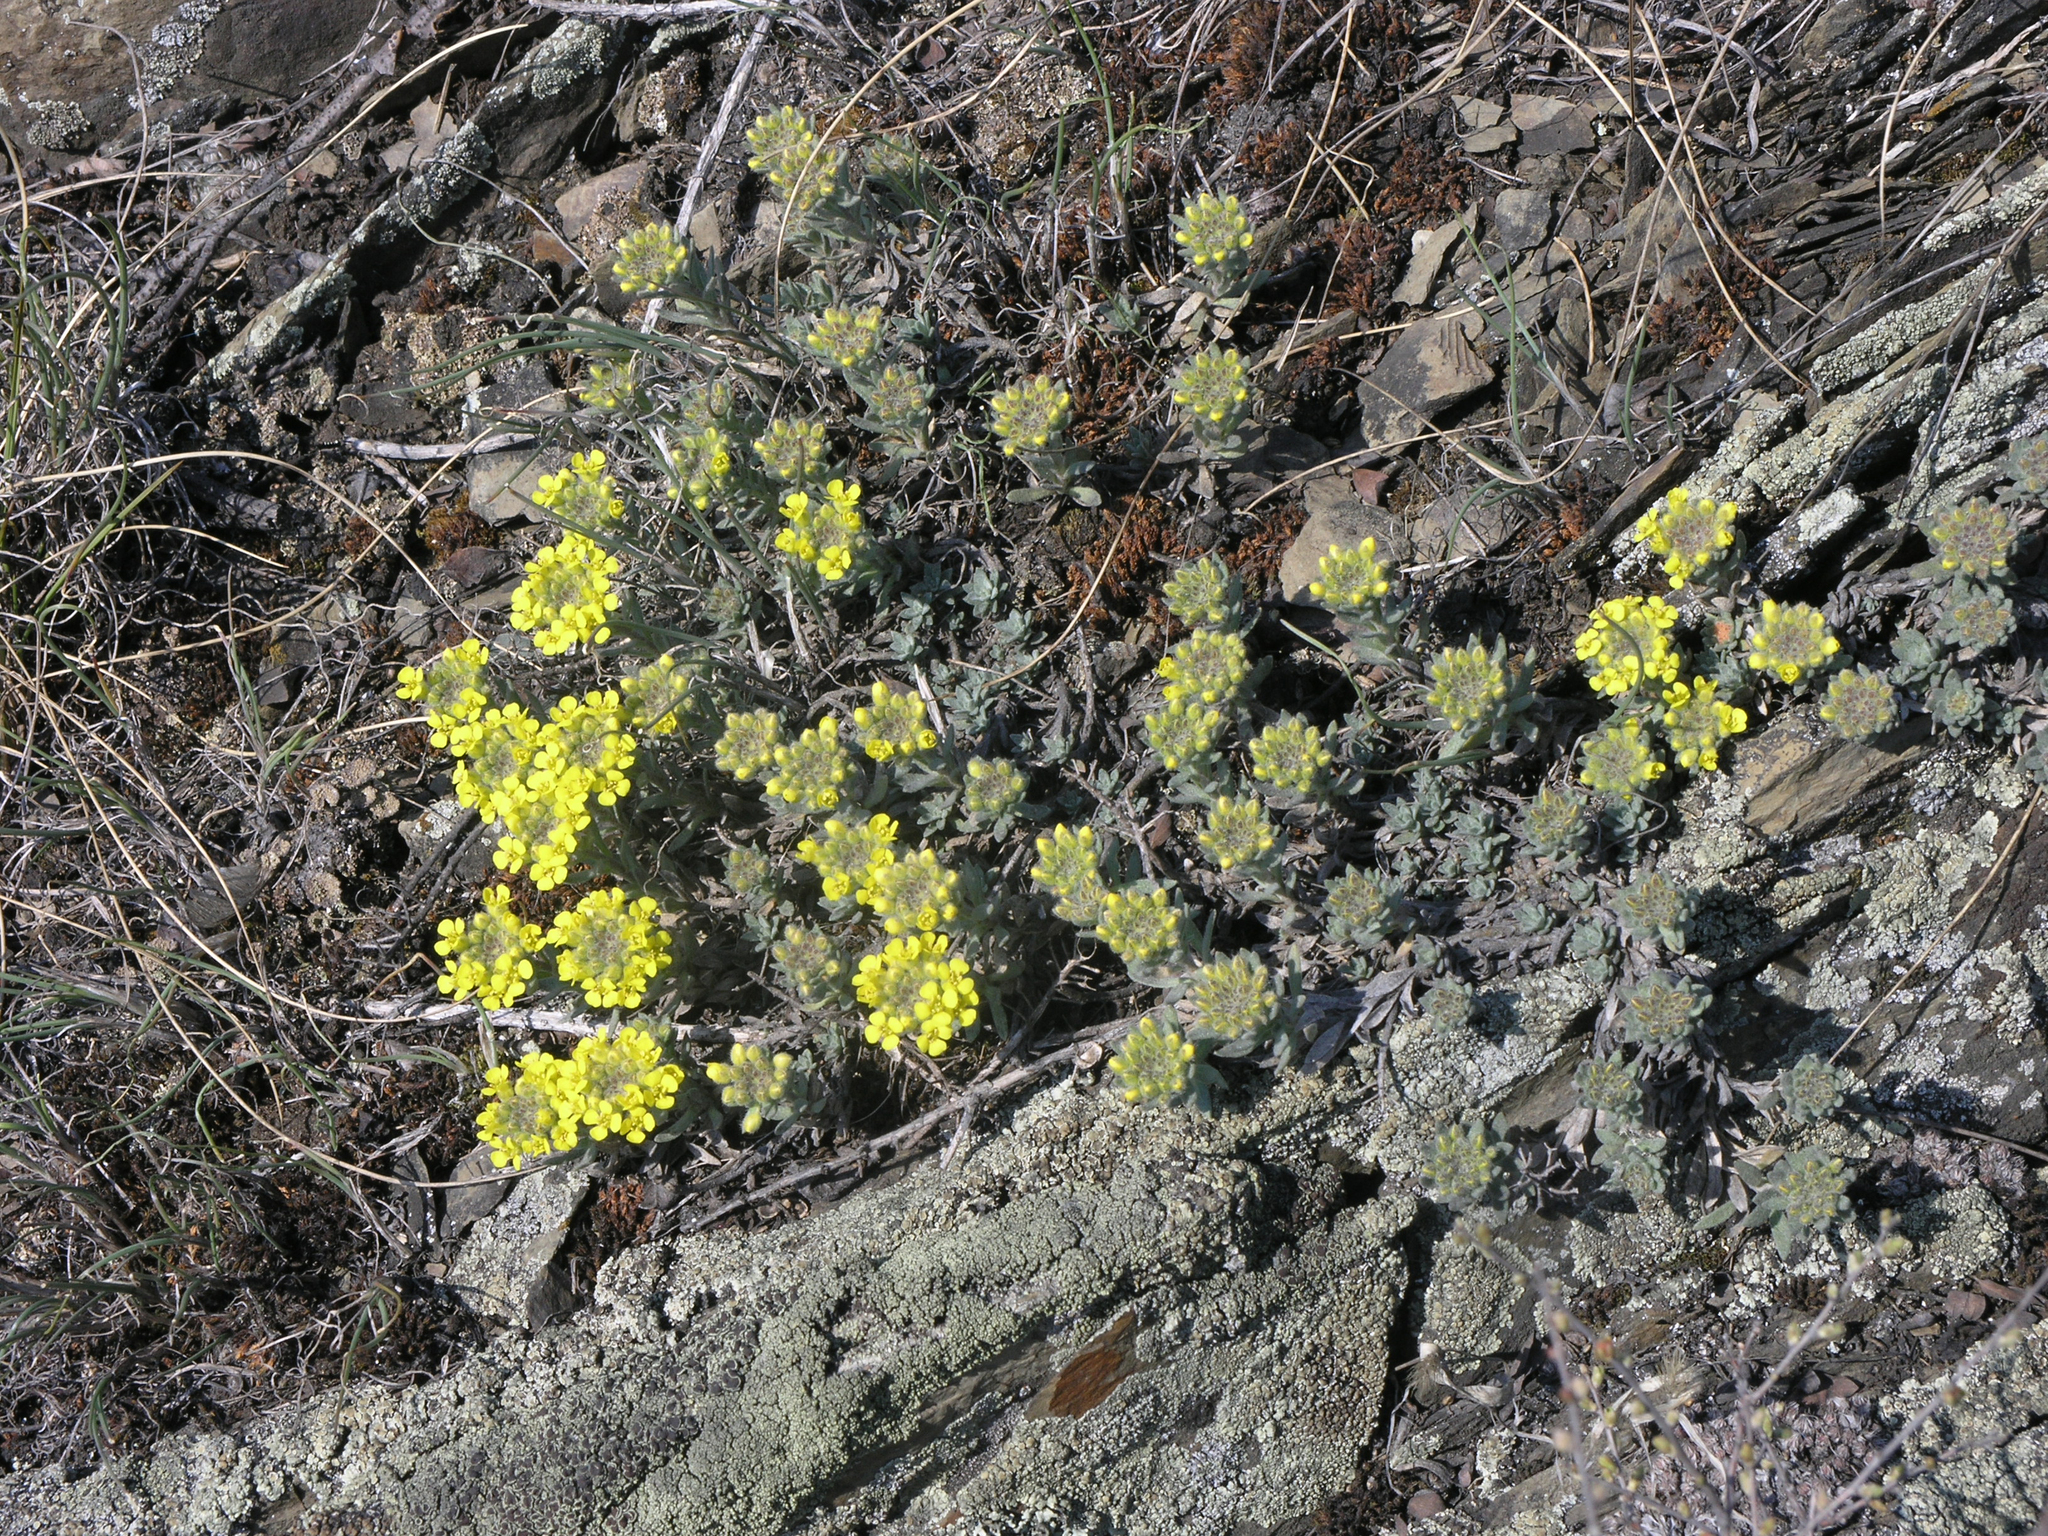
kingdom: Plantae
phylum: Tracheophyta
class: Magnoliopsida
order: Brassicales
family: Brassicaceae
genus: Alyssum
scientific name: Alyssum lenense
